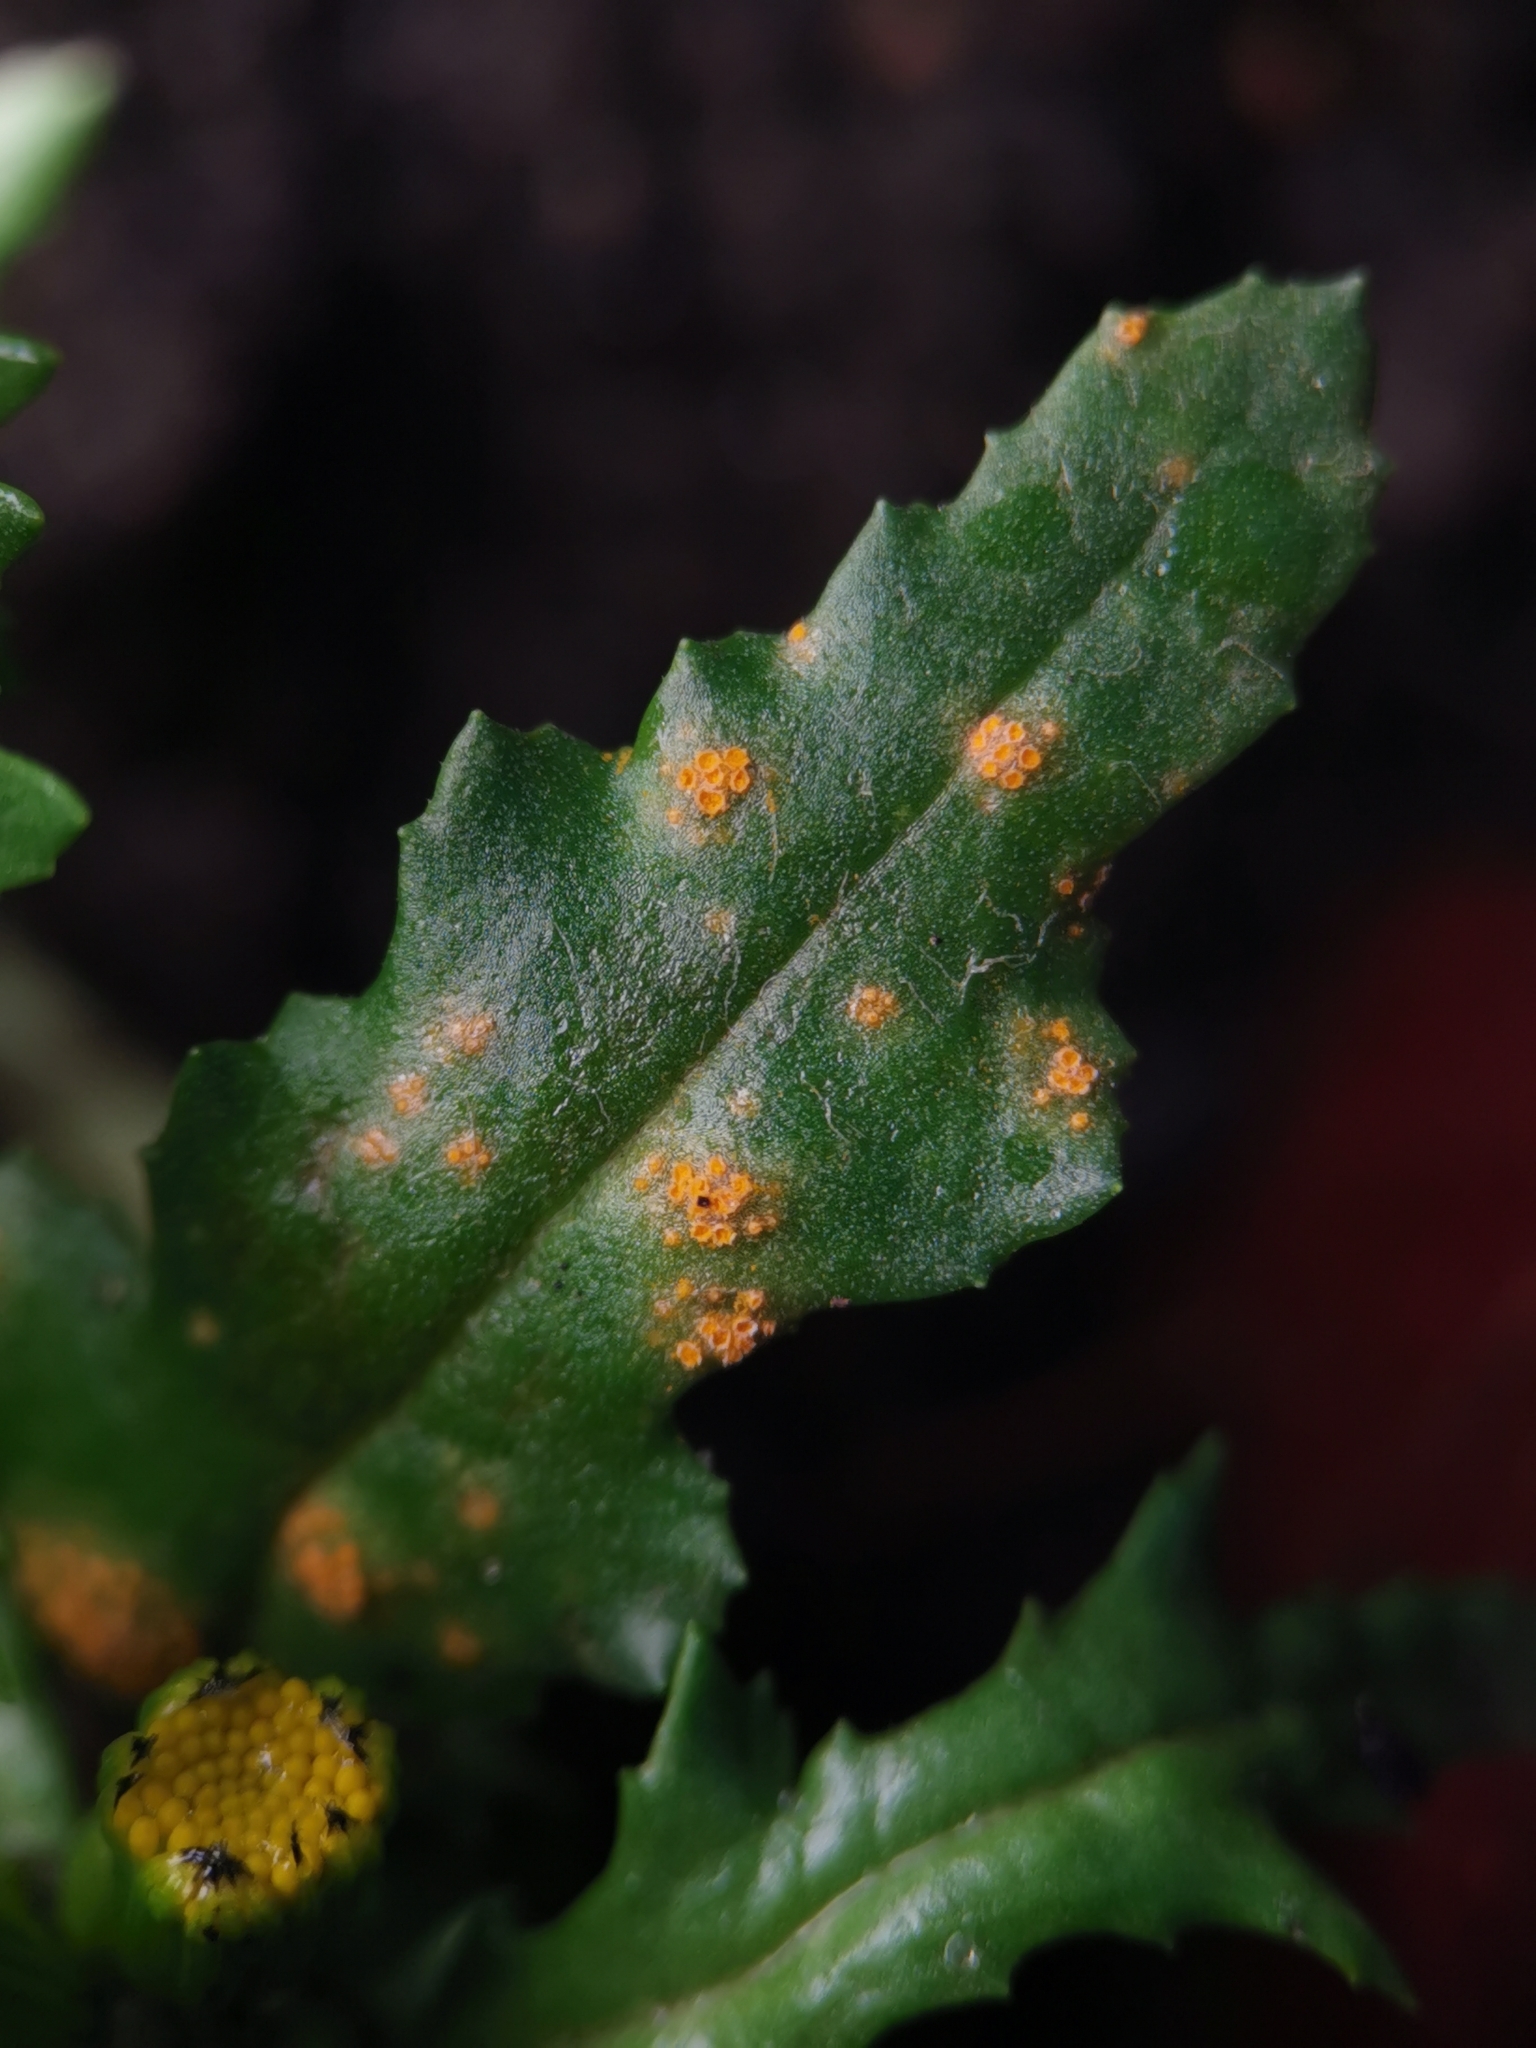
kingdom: Fungi
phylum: Basidiomycota
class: Pucciniomycetes
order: Pucciniales
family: Pucciniaceae
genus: Puccinia
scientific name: Puccinia lagenophorae
